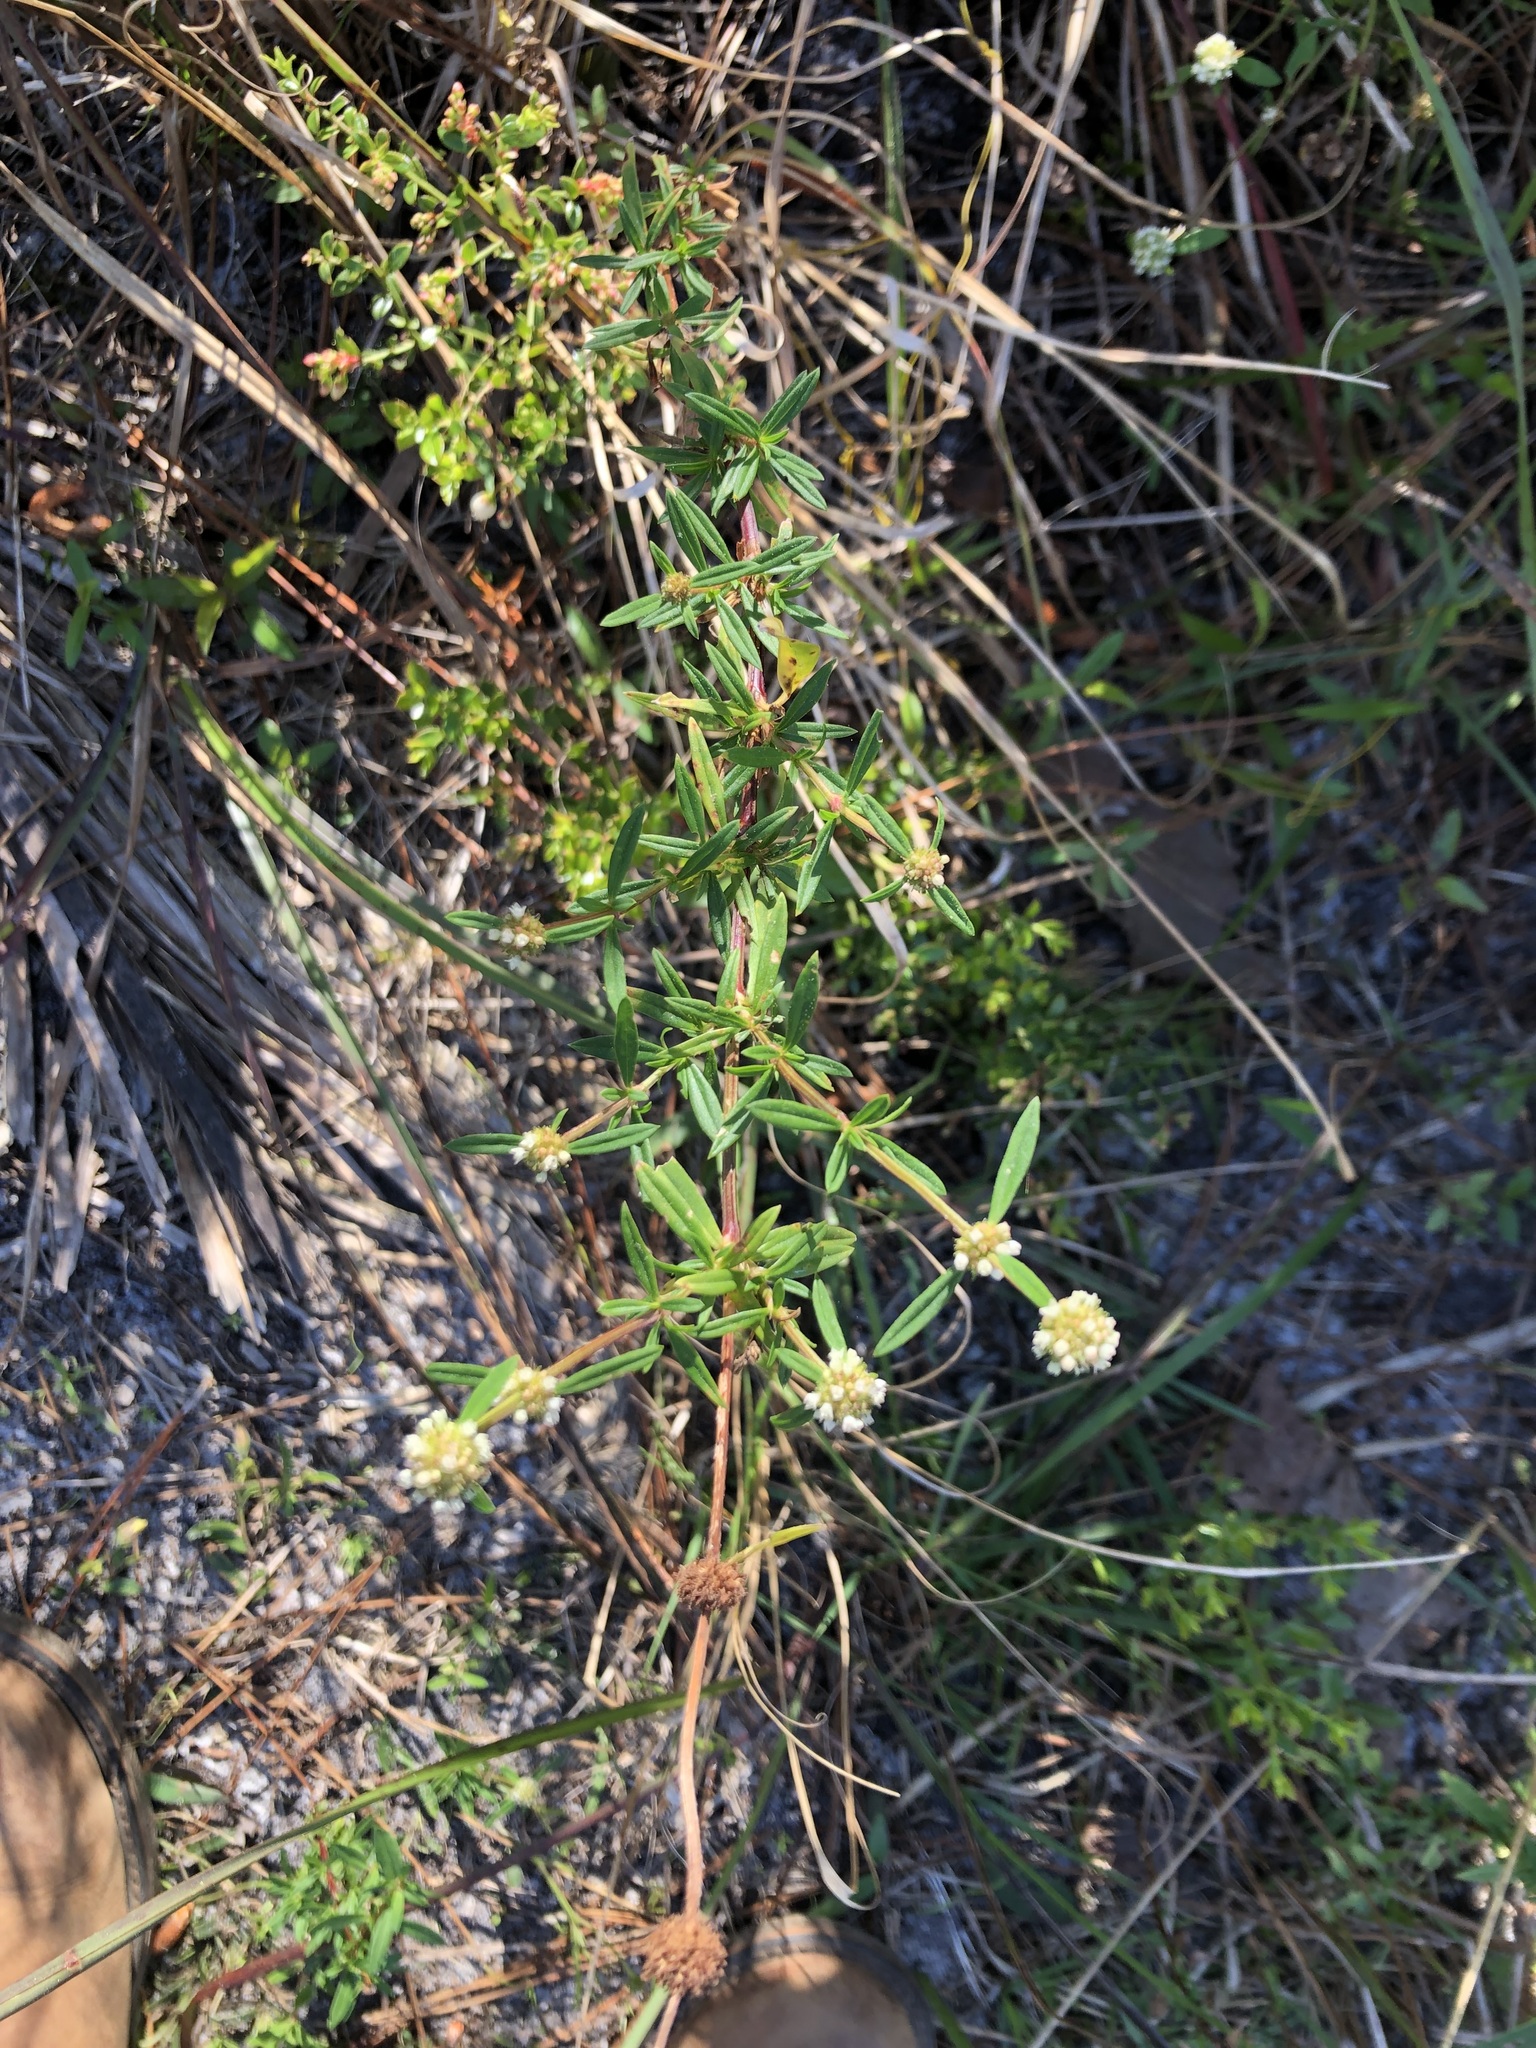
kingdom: Plantae
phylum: Tracheophyta
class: Magnoliopsida
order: Gentianales
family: Rubiaceae
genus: Spermacoce
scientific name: Spermacoce verticillata
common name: Shrubby false buttonweed
